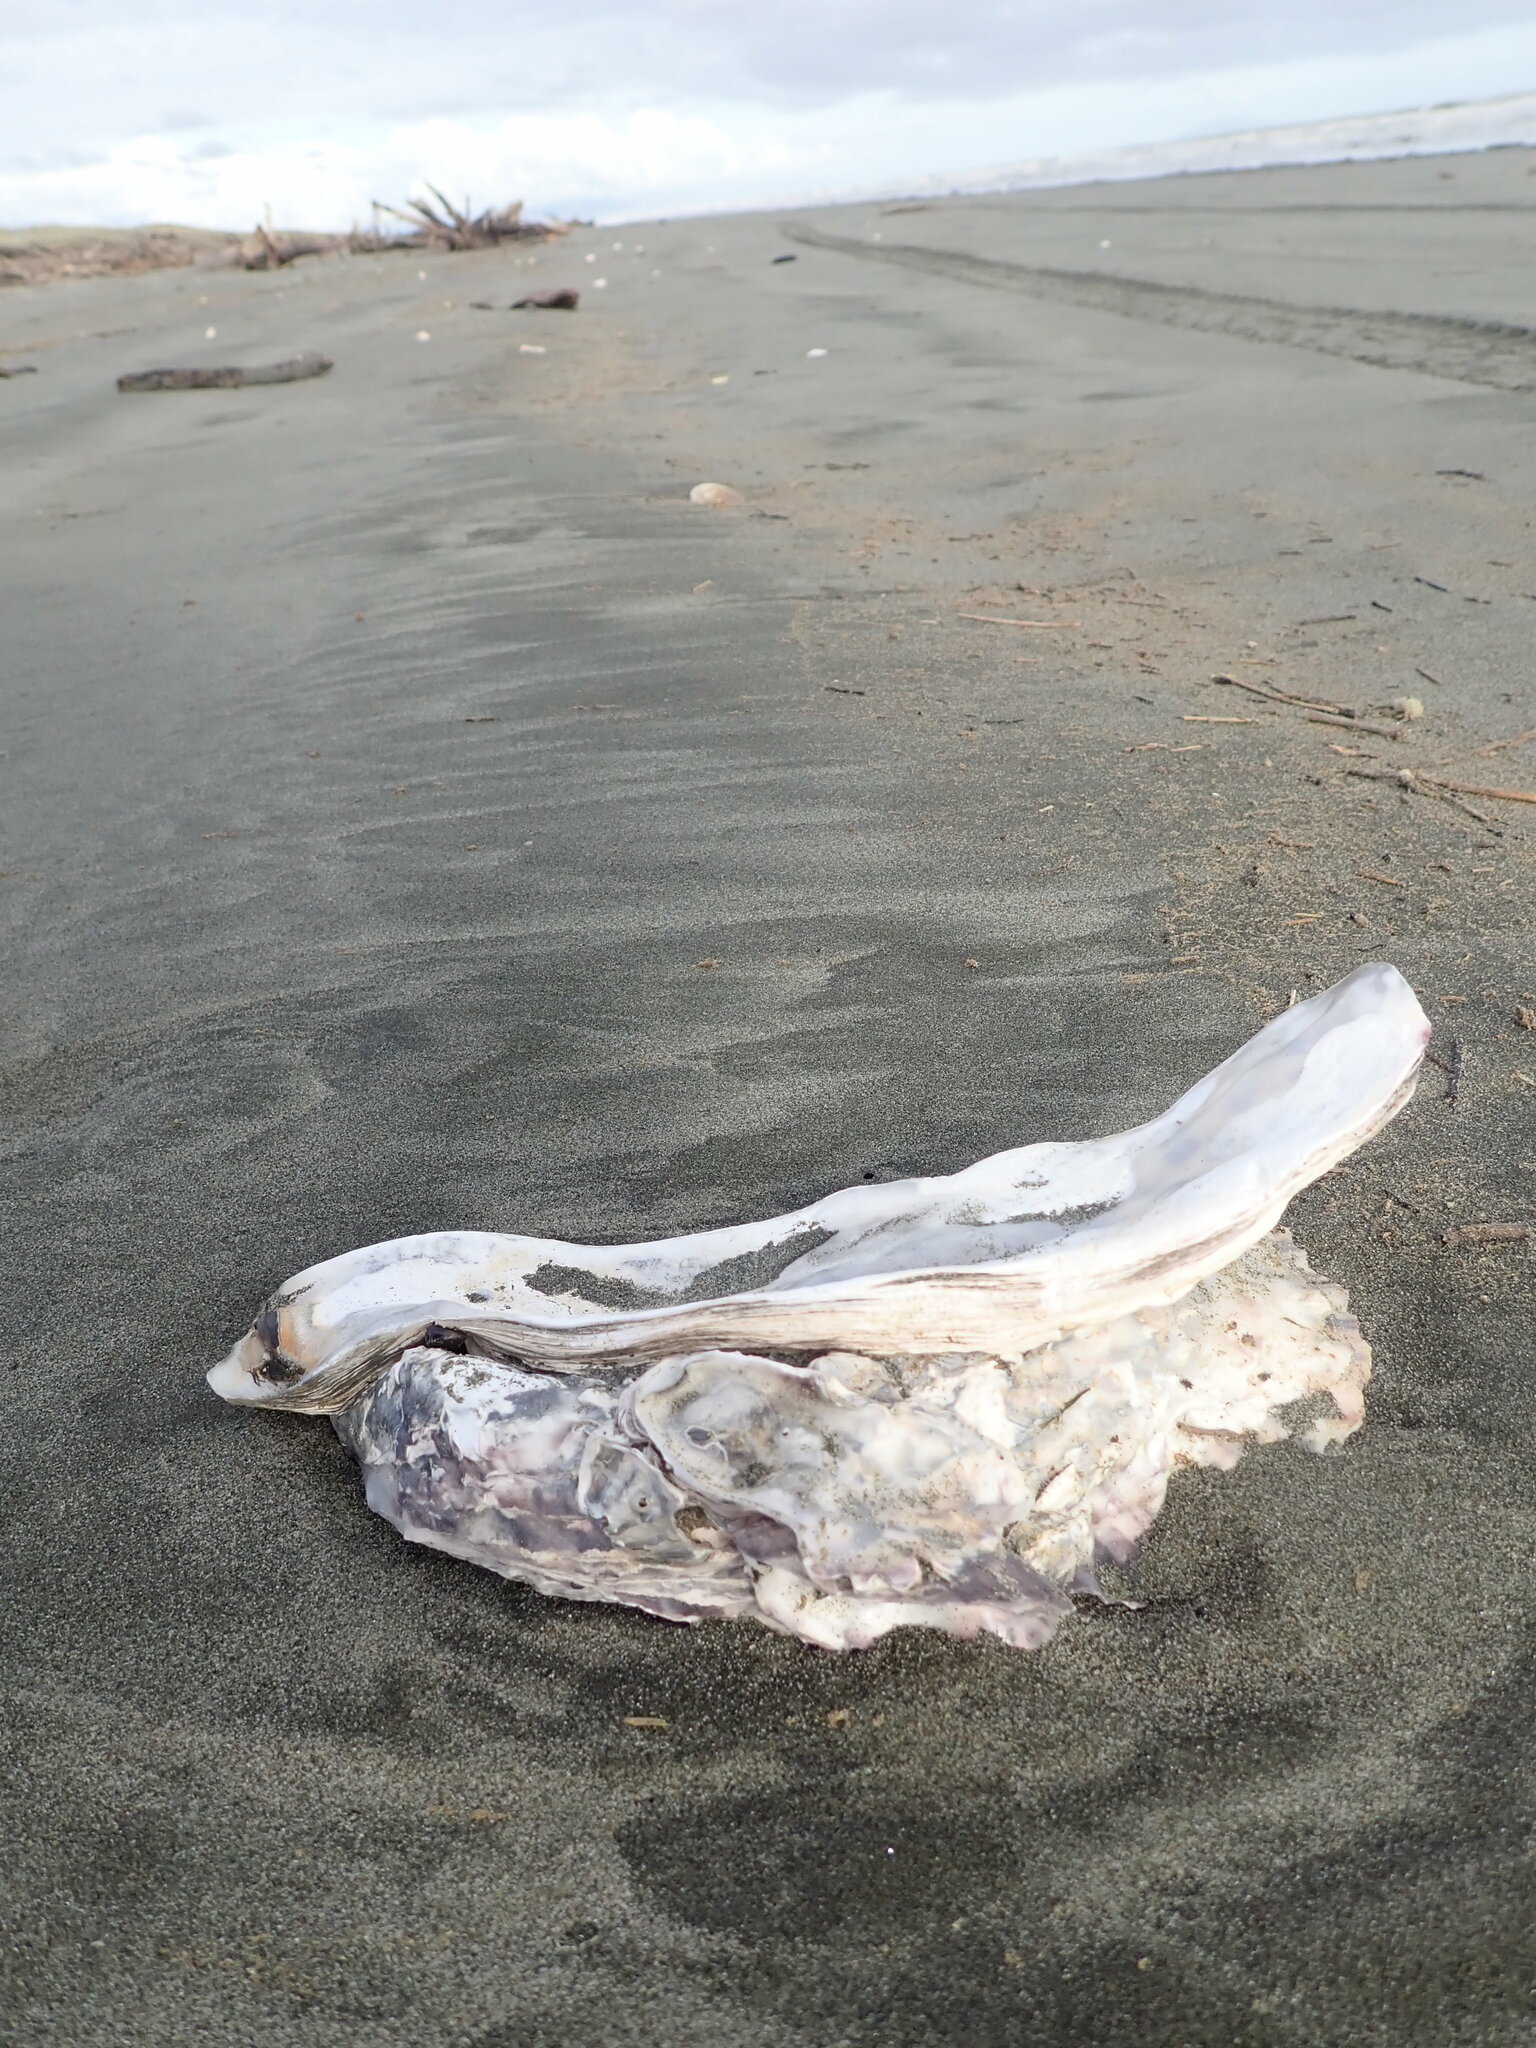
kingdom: Animalia
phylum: Mollusca
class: Bivalvia
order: Ostreida
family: Ostreidae
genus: Magallana
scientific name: Magallana gigas
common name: Pacific oyster
